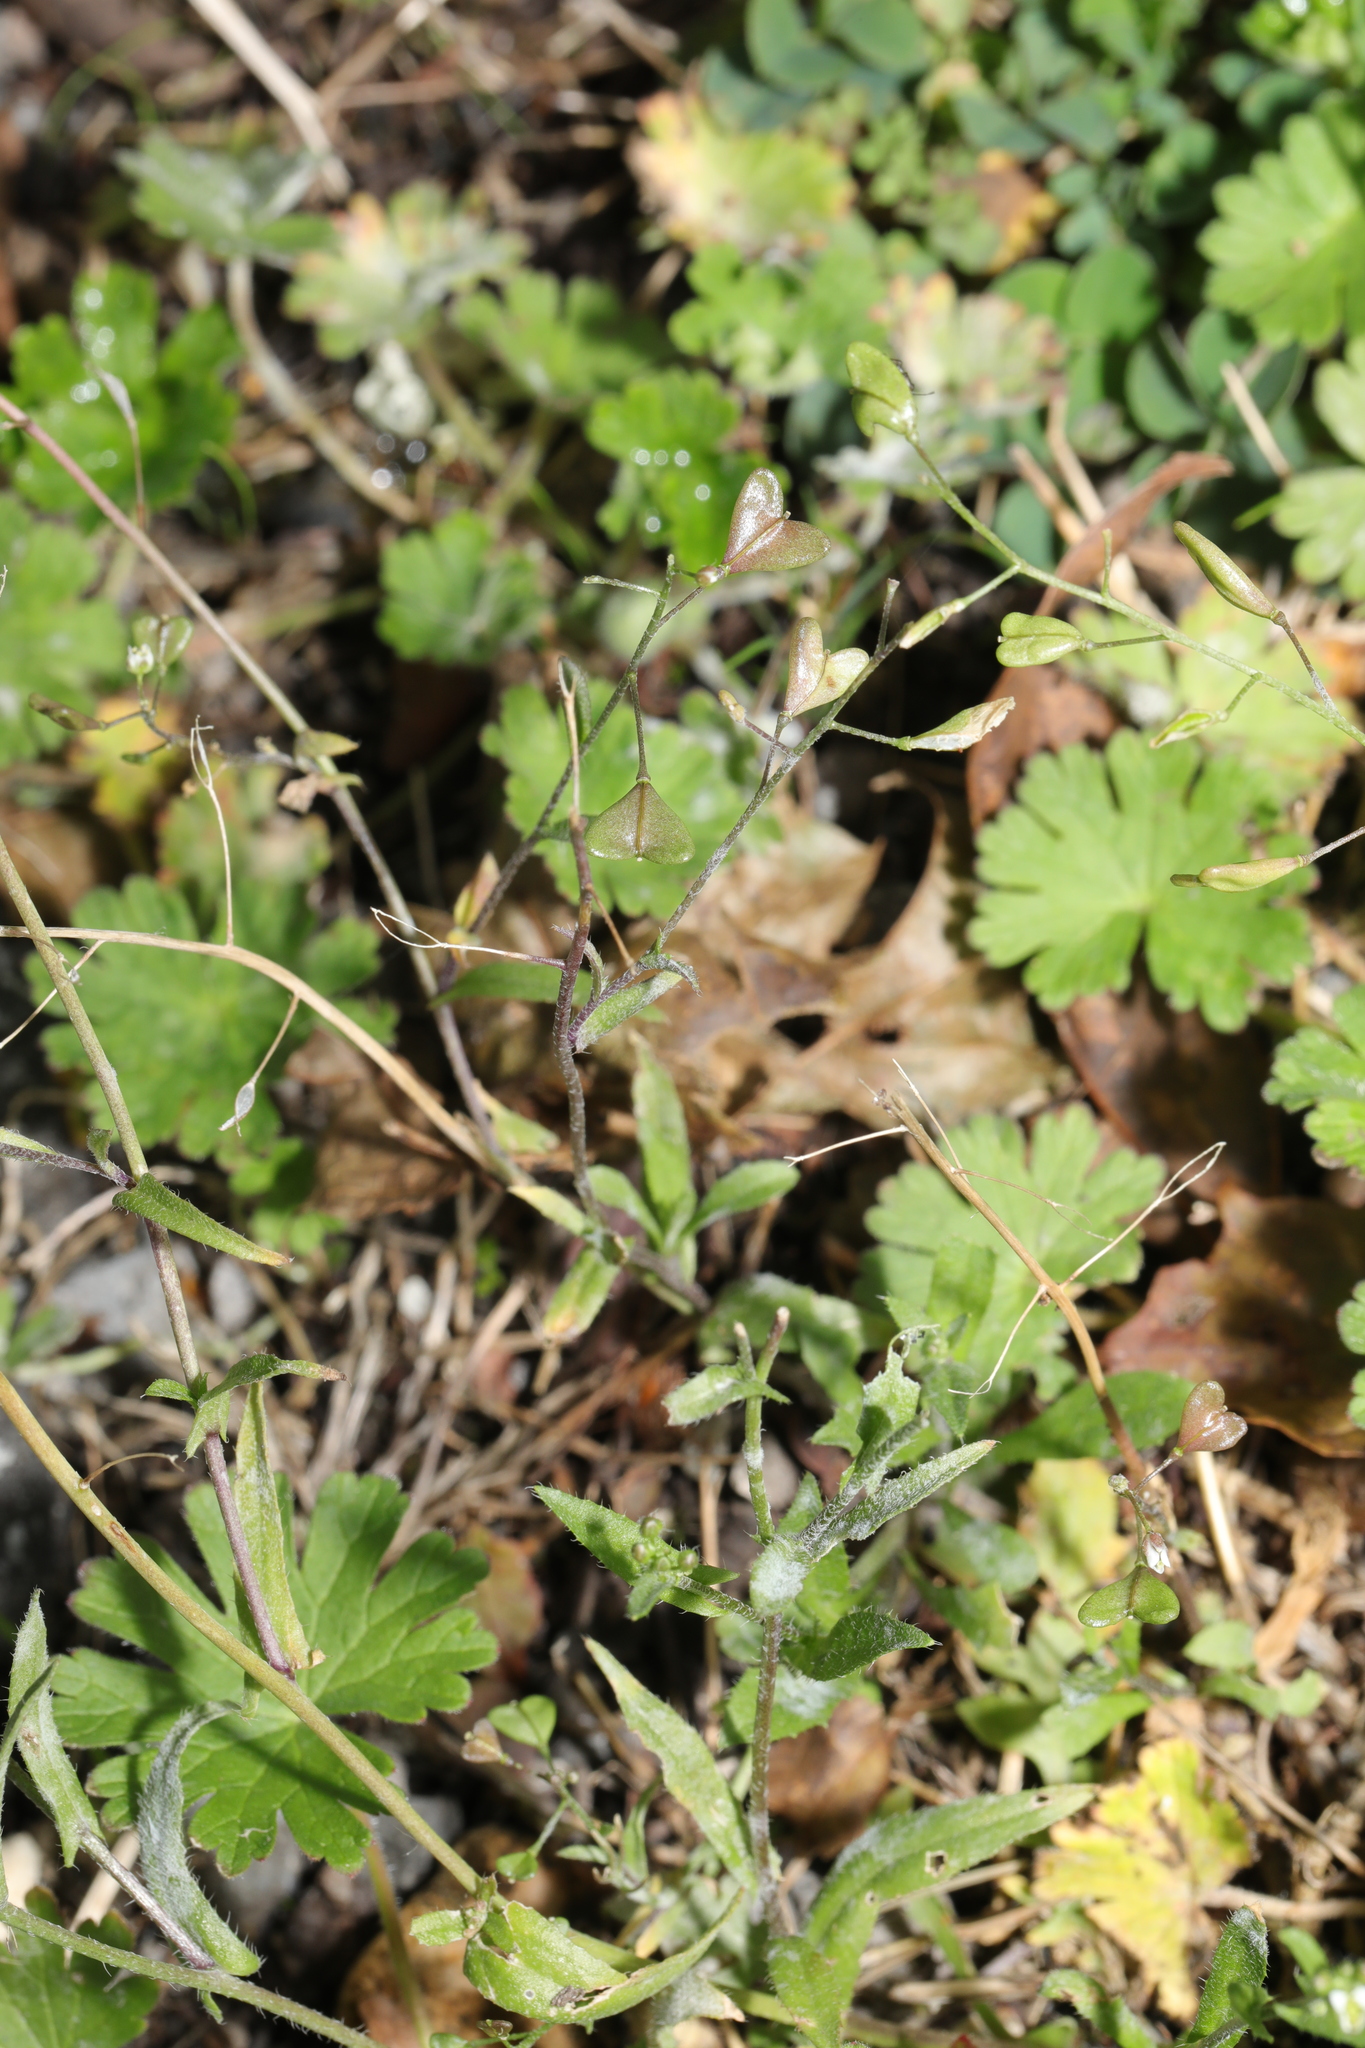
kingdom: Plantae
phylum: Tracheophyta
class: Magnoliopsida
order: Brassicales
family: Brassicaceae
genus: Capsella
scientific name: Capsella bursa-pastoris
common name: Shepherd's purse
